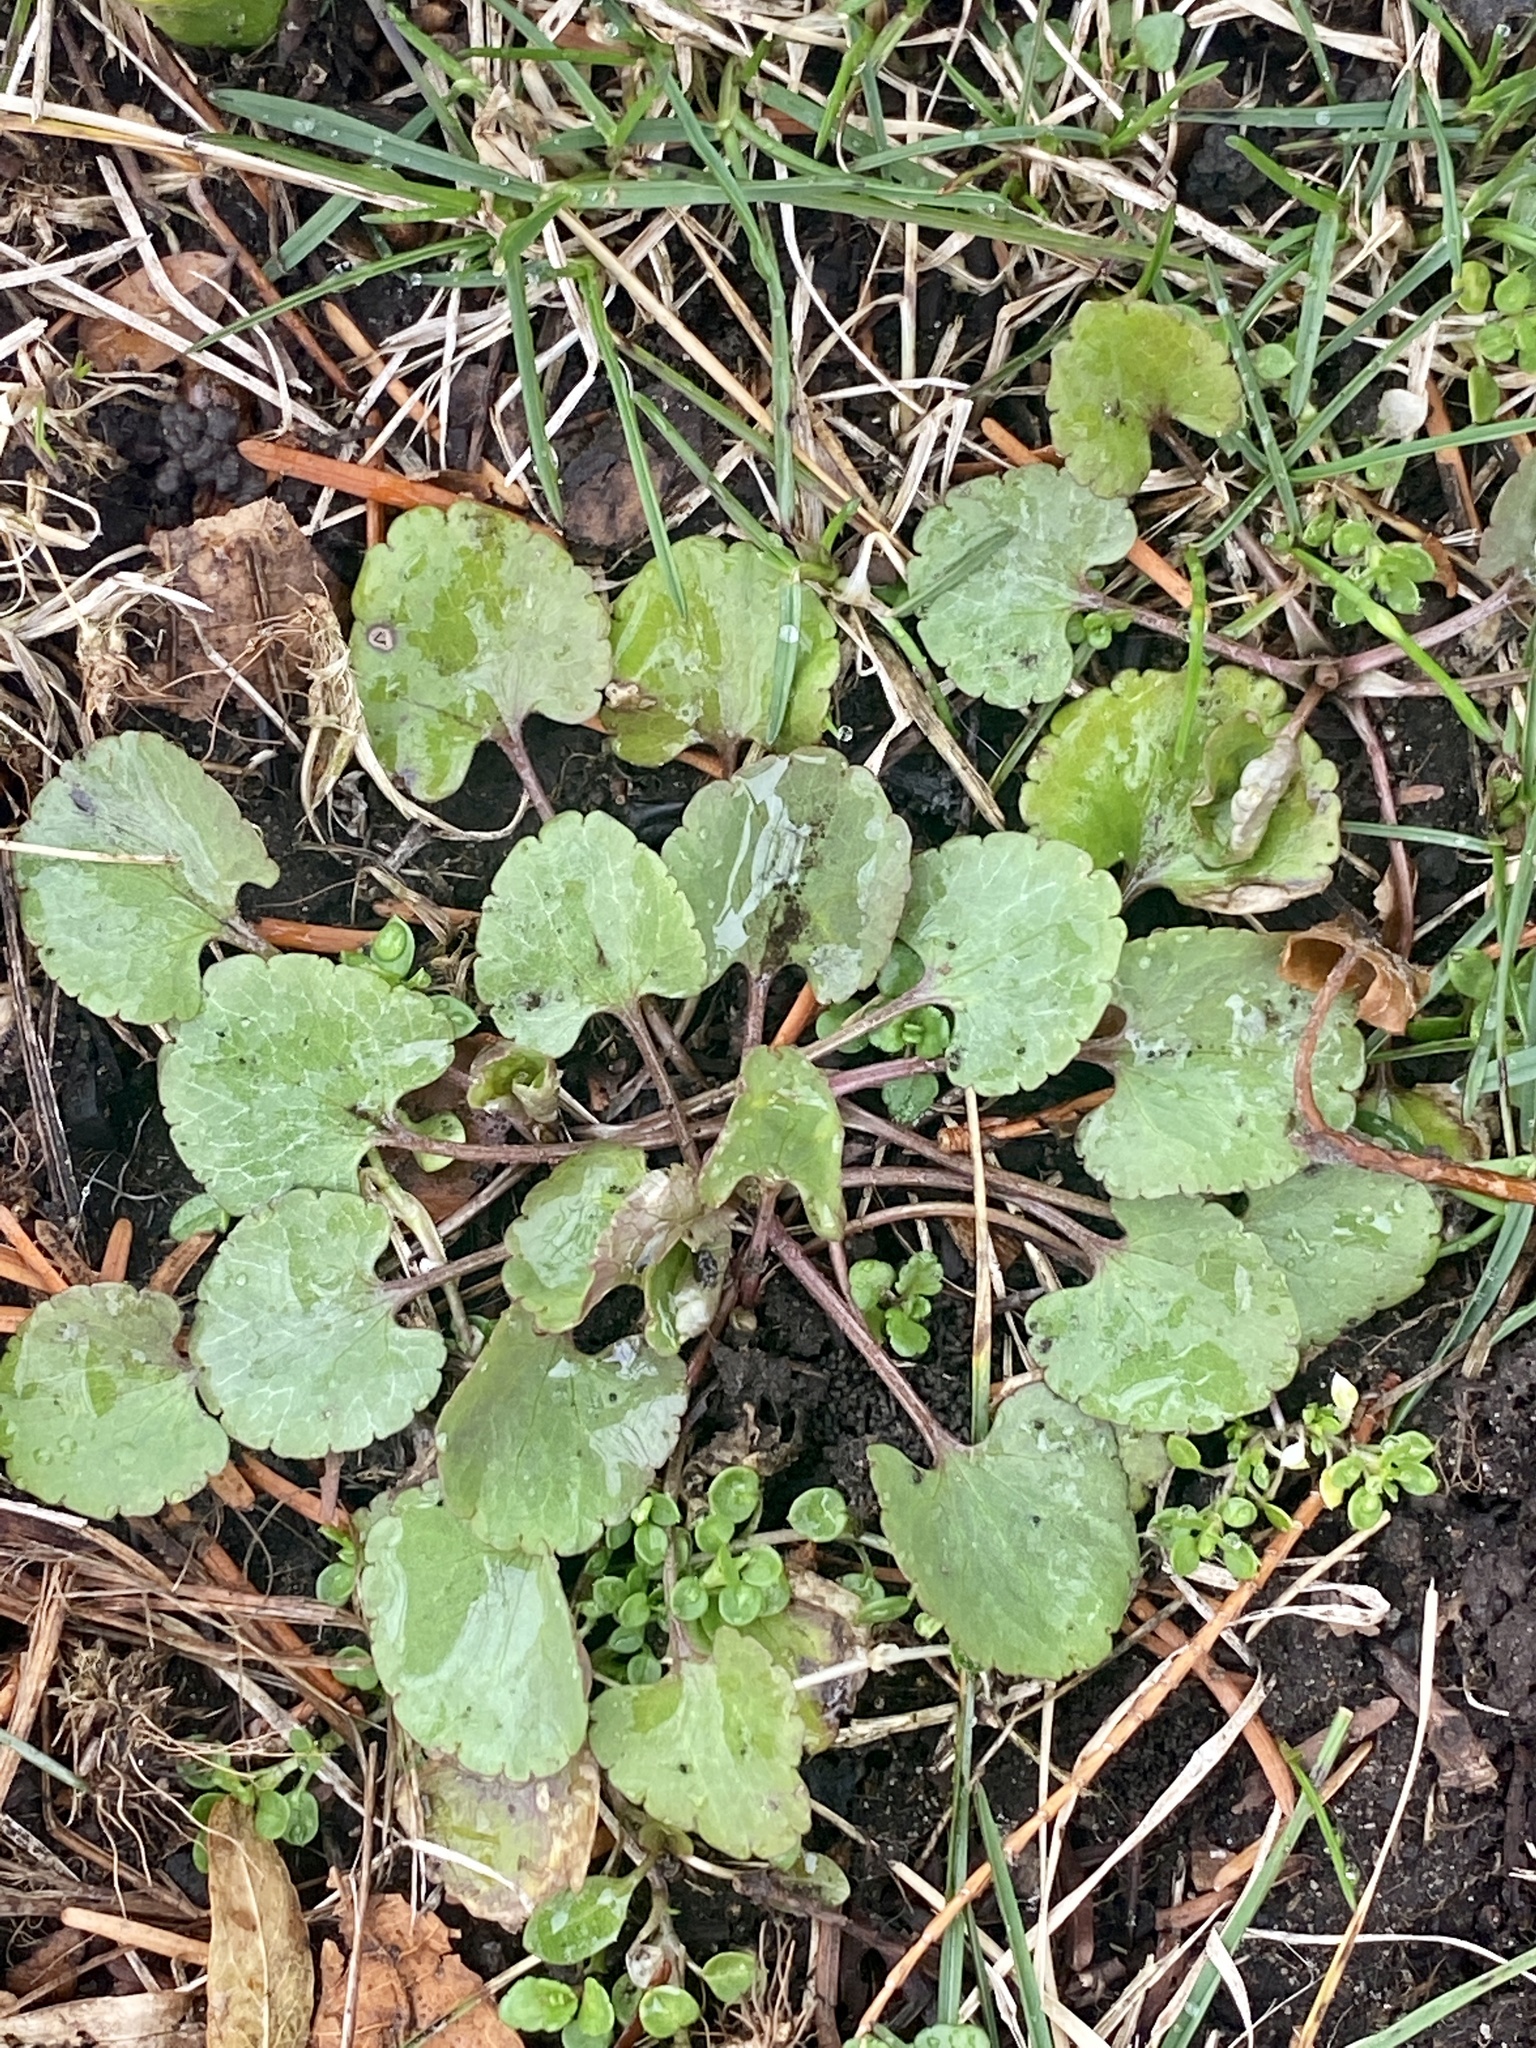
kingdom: Plantae
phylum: Tracheophyta
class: Magnoliopsida
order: Ranunculales
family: Ranunculaceae
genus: Ranunculus
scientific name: Ranunculus abortivus
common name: Early wood buttercup
